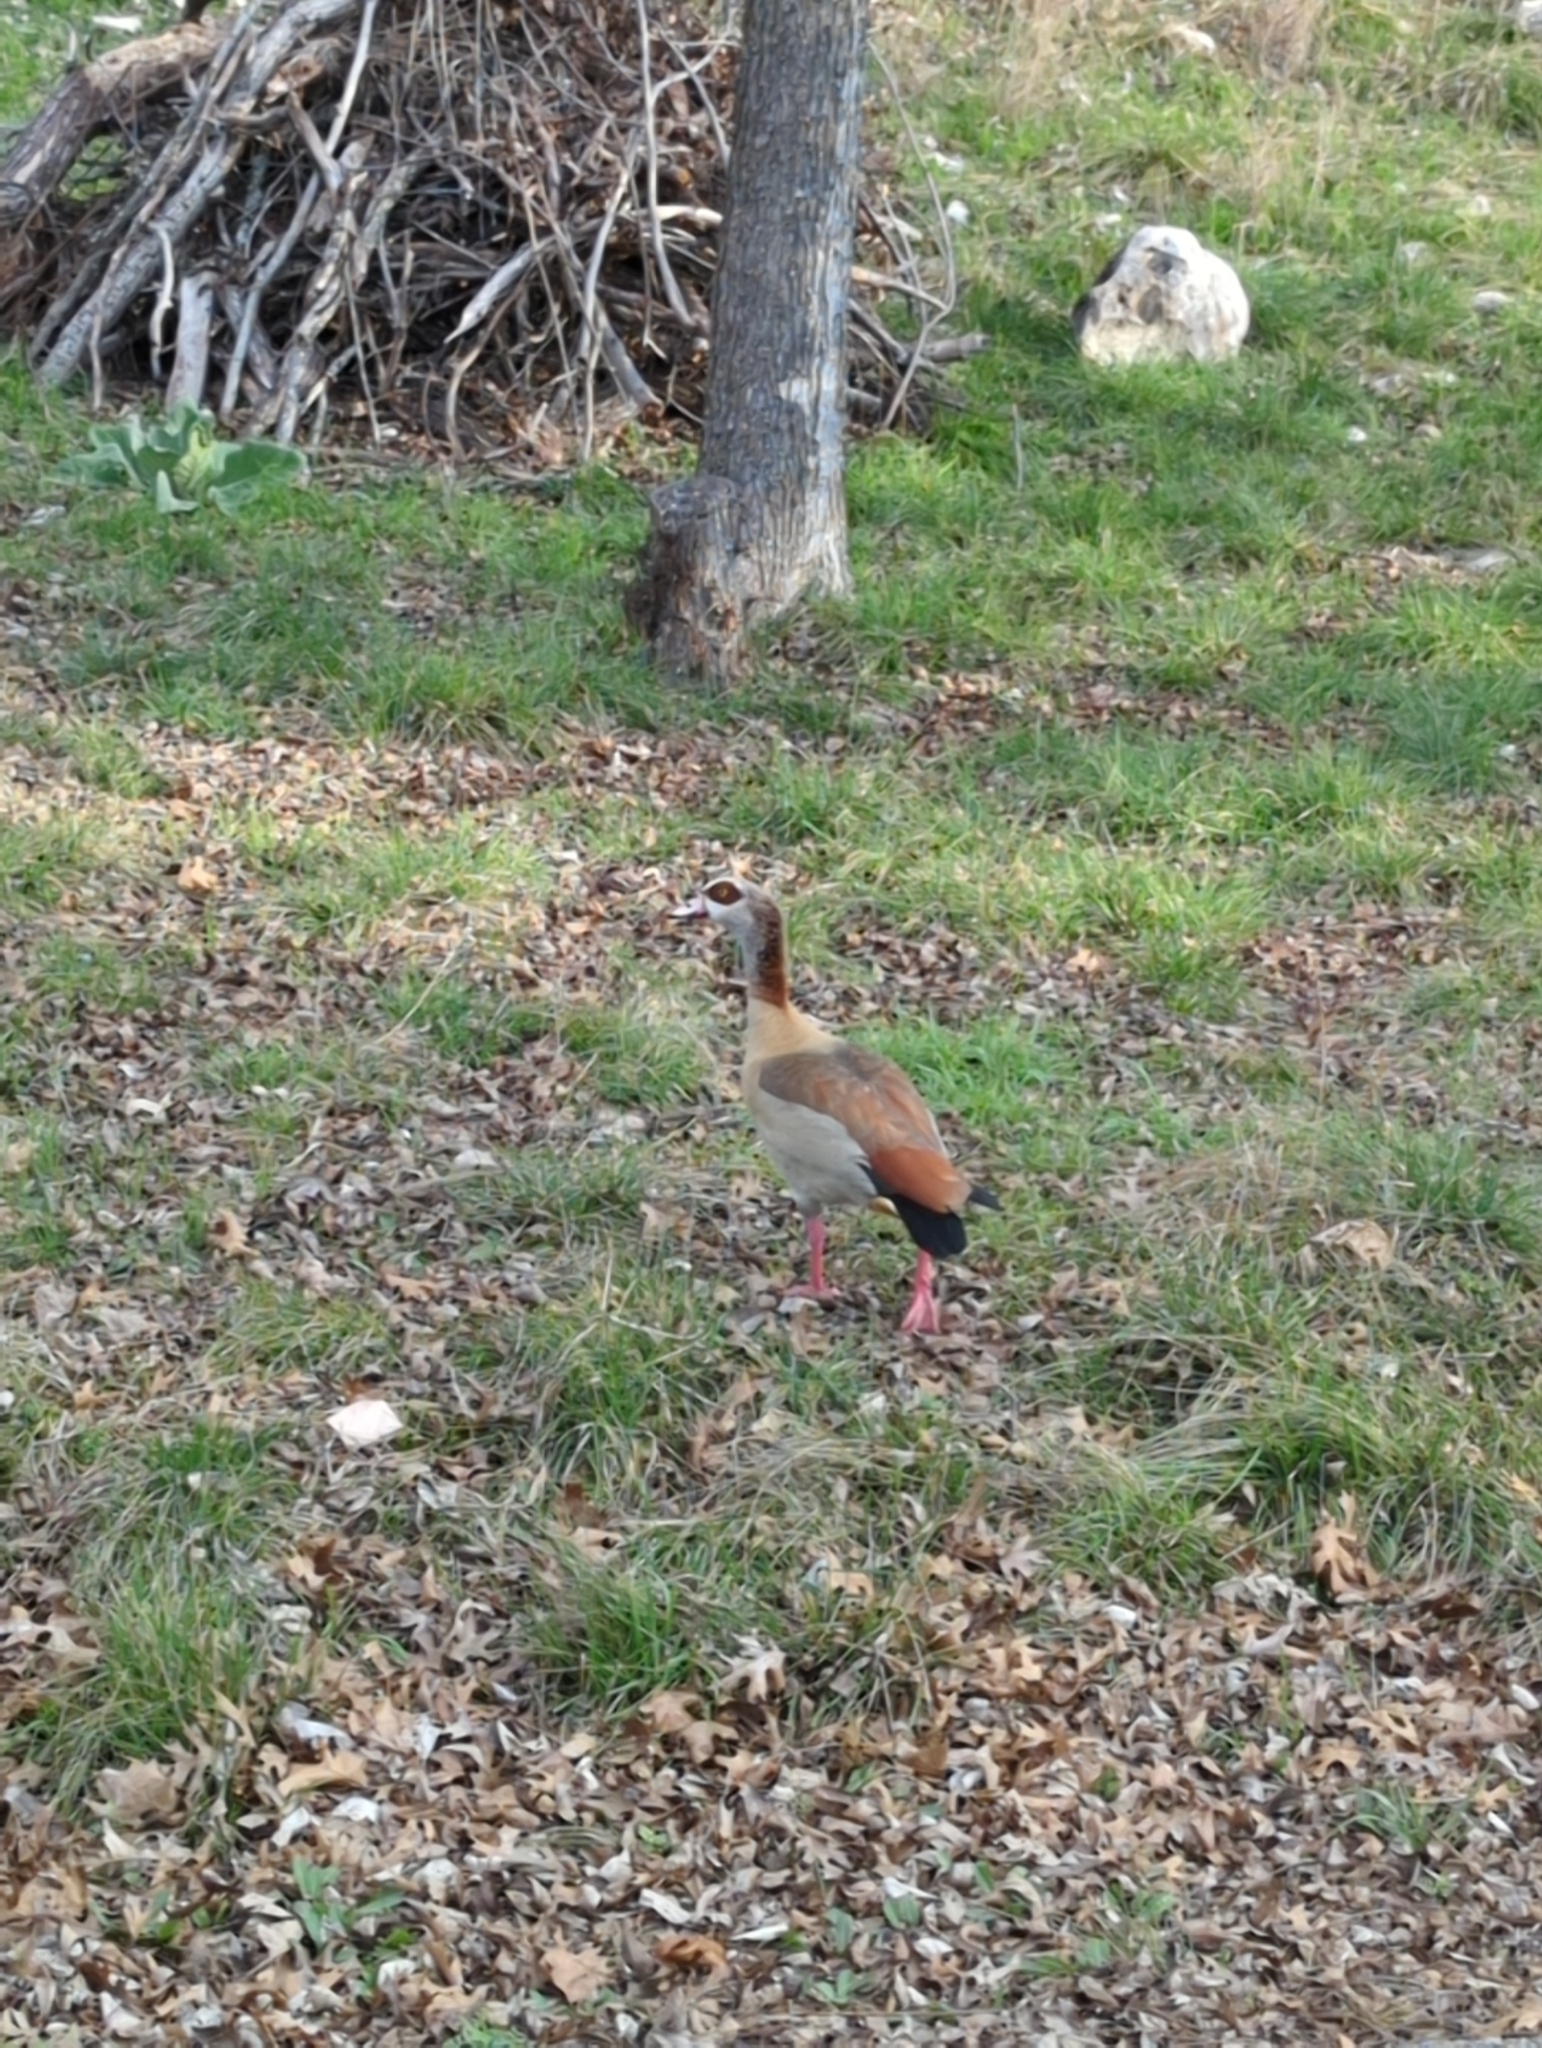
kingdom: Animalia
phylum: Chordata
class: Aves
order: Anseriformes
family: Anatidae
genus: Alopochen
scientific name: Alopochen aegyptiaca
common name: Egyptian goose
